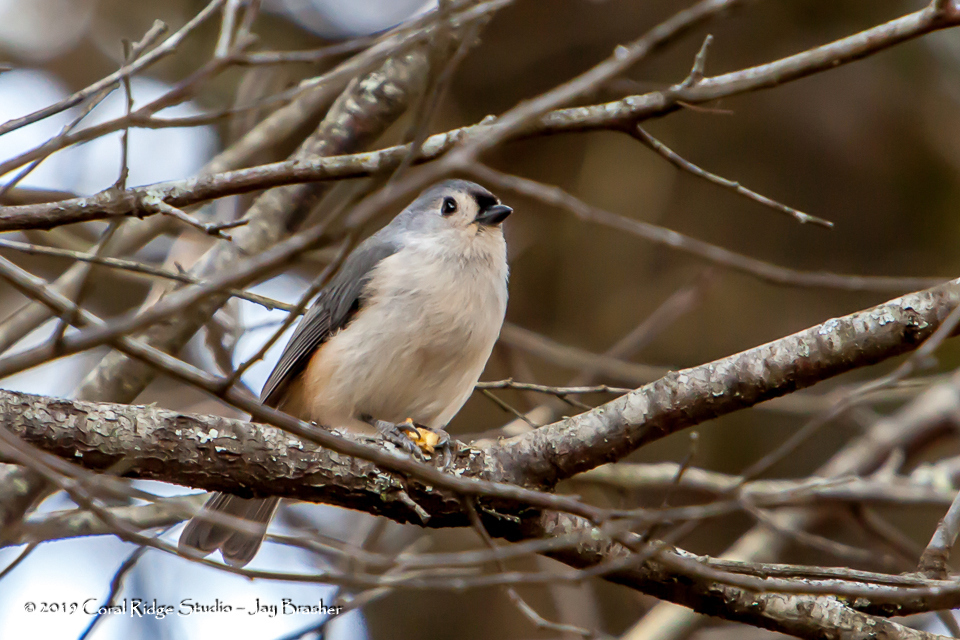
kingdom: Animalia
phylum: Chordata
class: Aves
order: Passeriformes
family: Paridae
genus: Baeolophus
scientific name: Baeolophus bicolor
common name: Tufted titmouse
